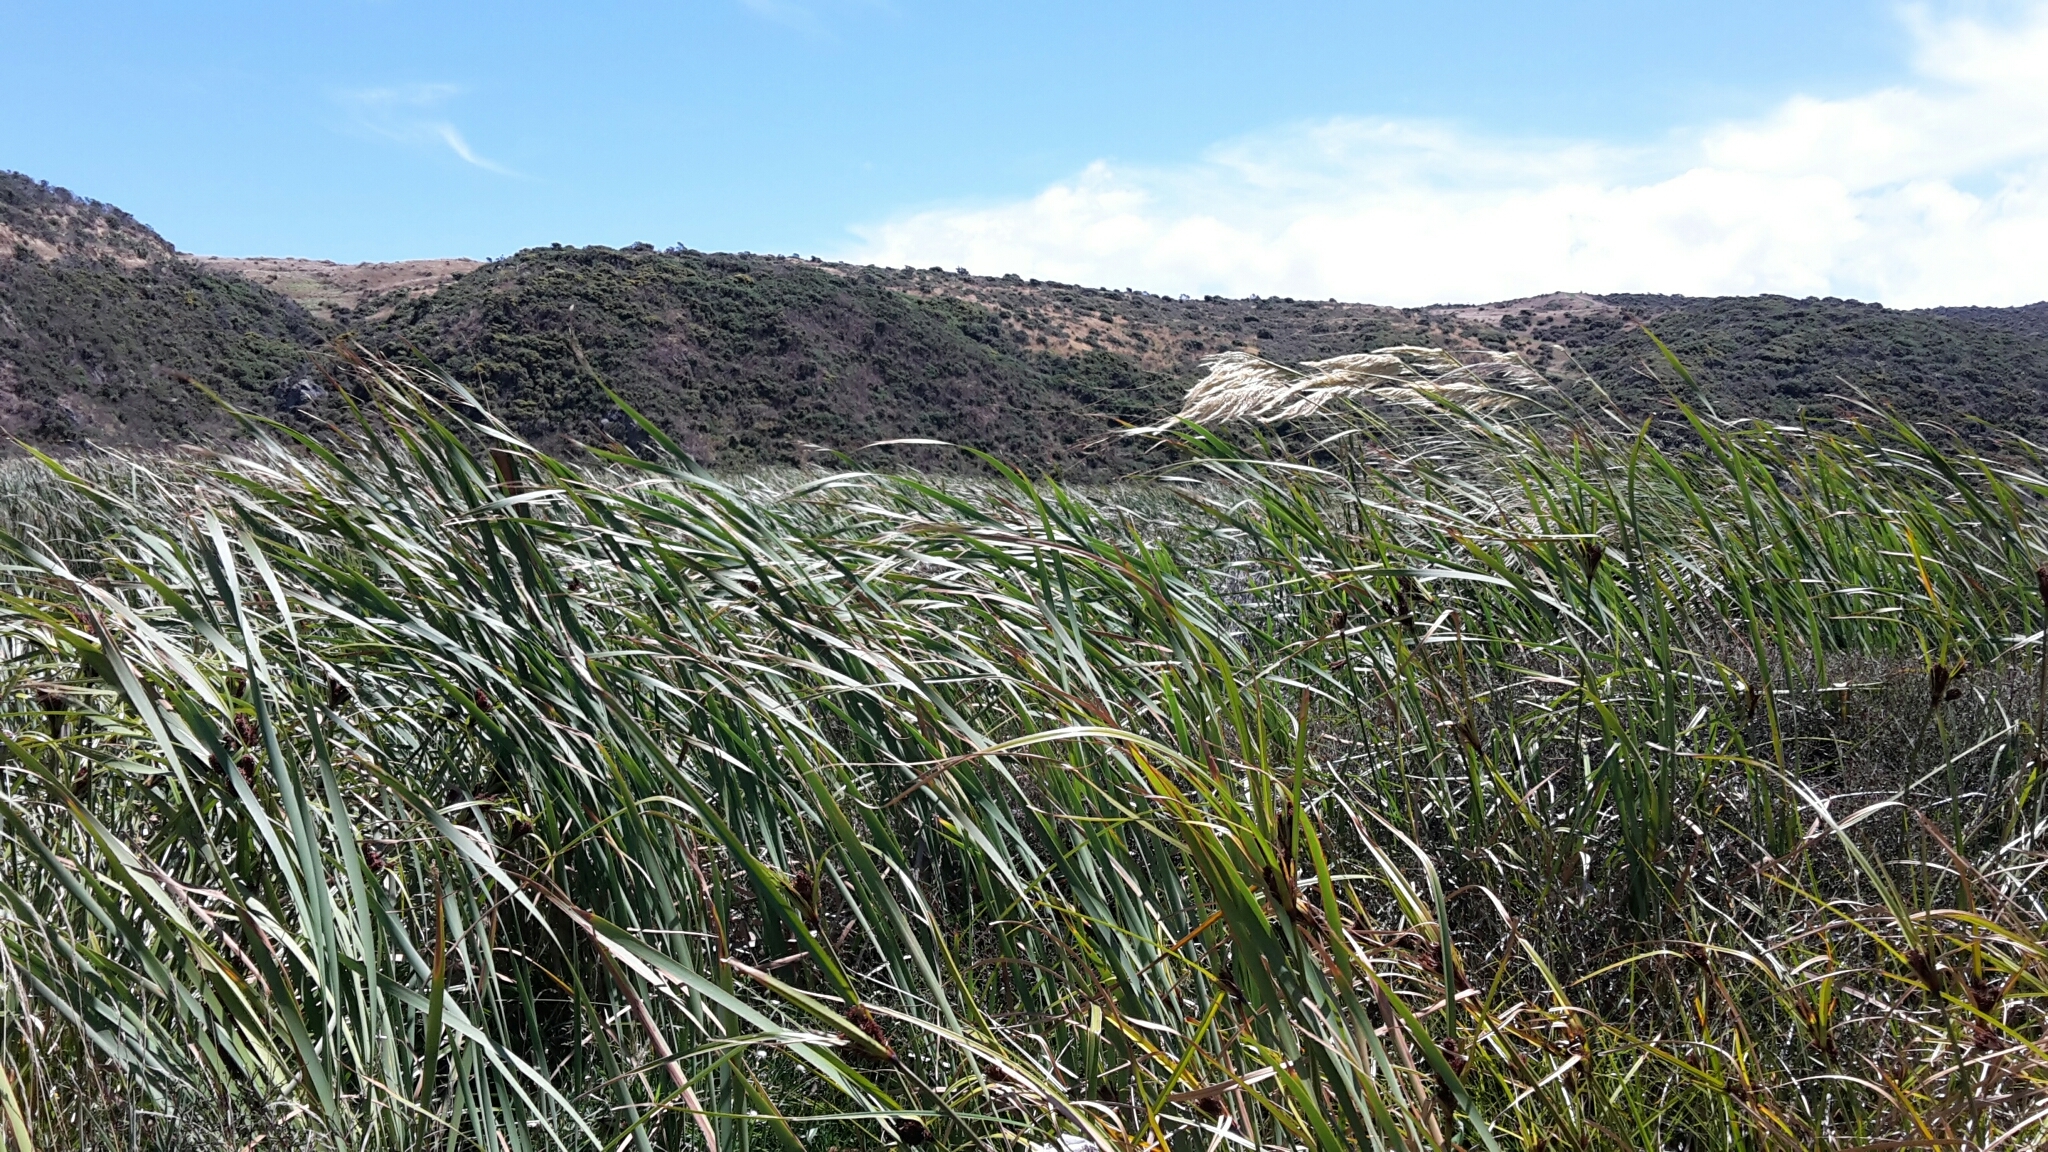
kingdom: Plantae
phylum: Tracheophyta
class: Liliopsida
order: Poales
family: Typhaceae
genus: Typha
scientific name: Typha orientalis
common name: Bullrush
